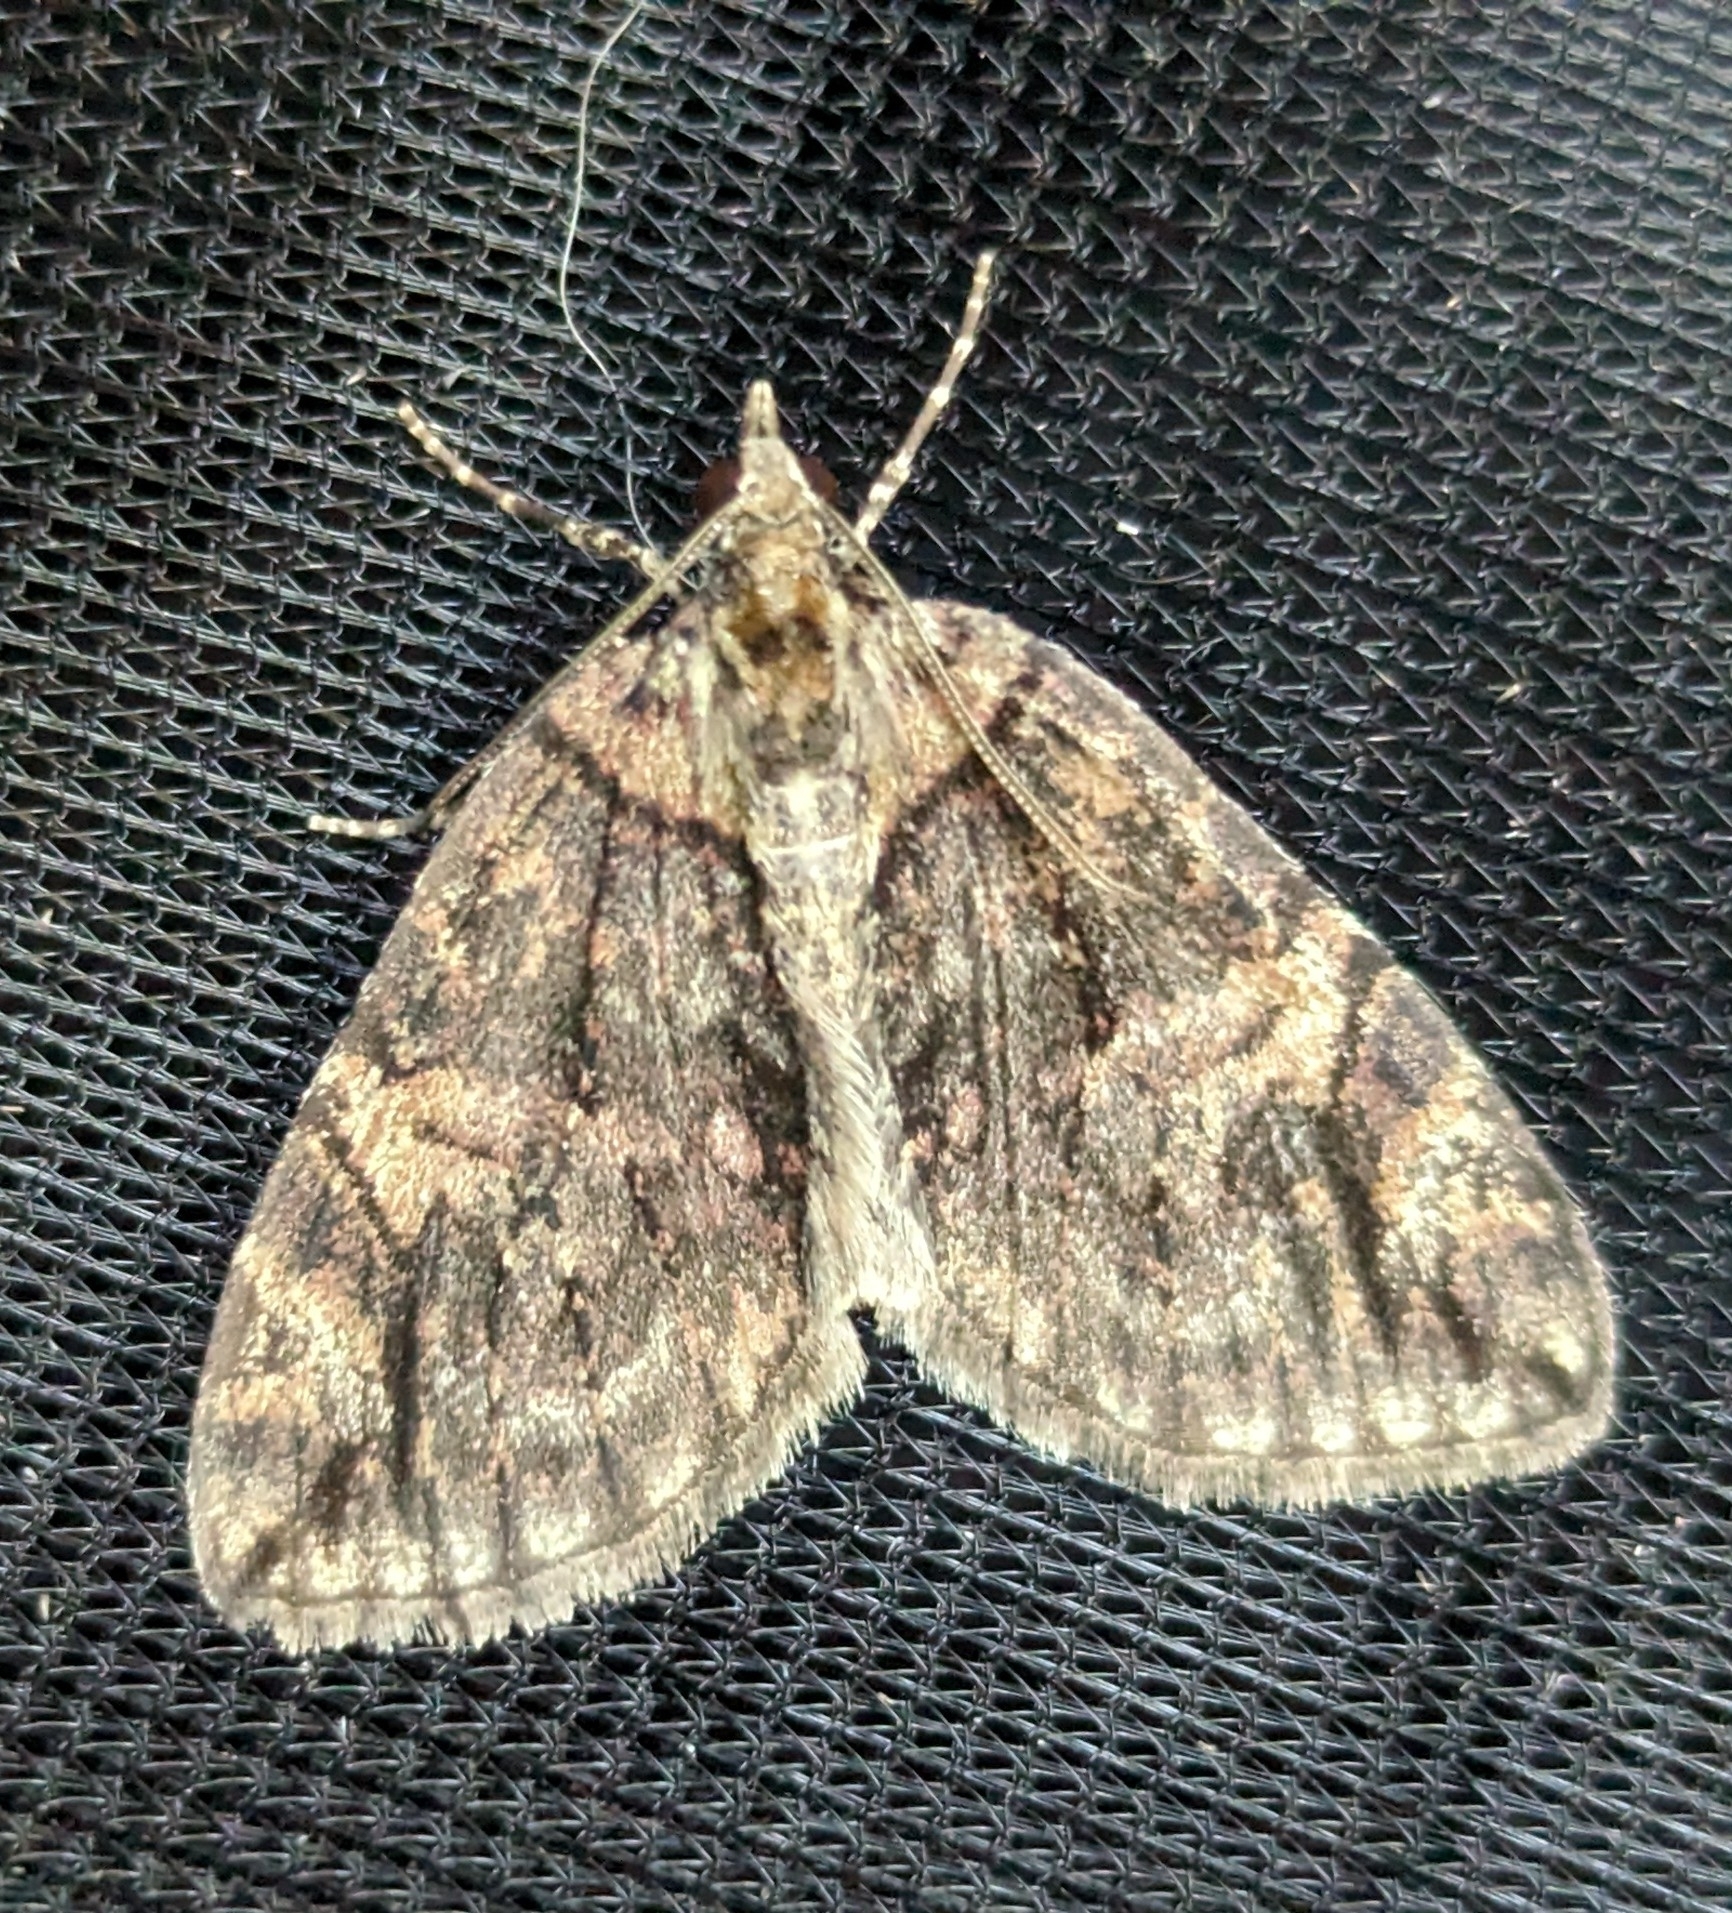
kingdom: Animalia
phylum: Arthropoda
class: Insecta
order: Lepidoptera
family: Geometridae
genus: Hydriomena
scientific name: Hydriomena
